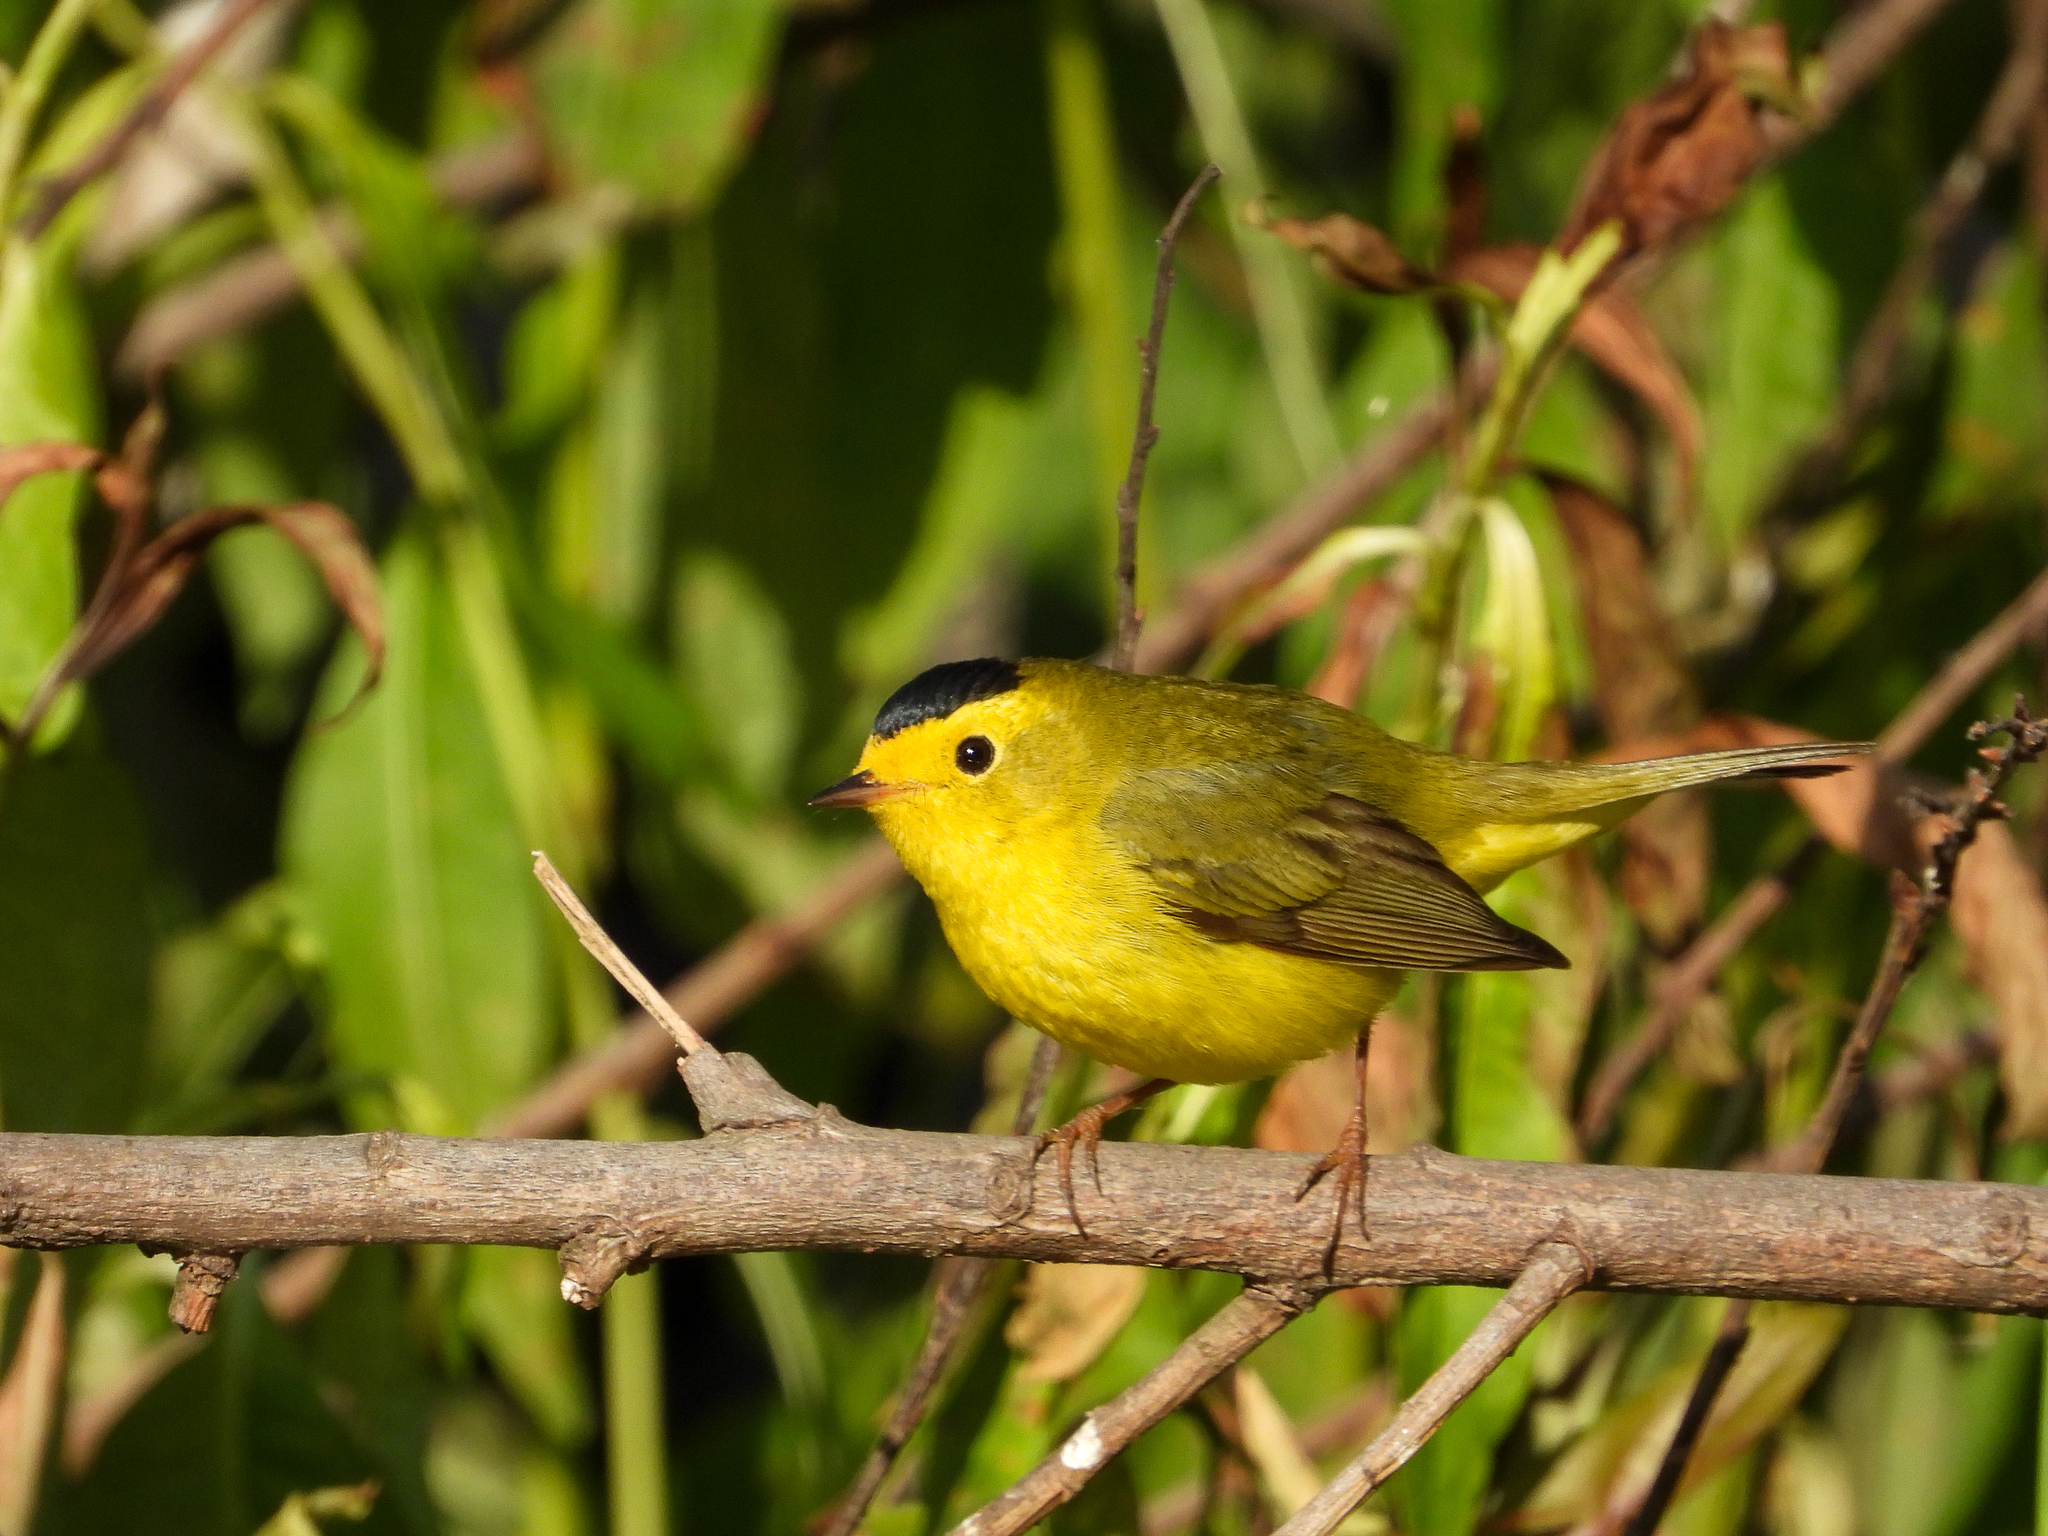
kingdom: Animalia
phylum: Chordata
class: Aves
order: Passeriformes
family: Parulidae
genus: Cardellina
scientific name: Cardellina pusilla
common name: Wilson's warbler
